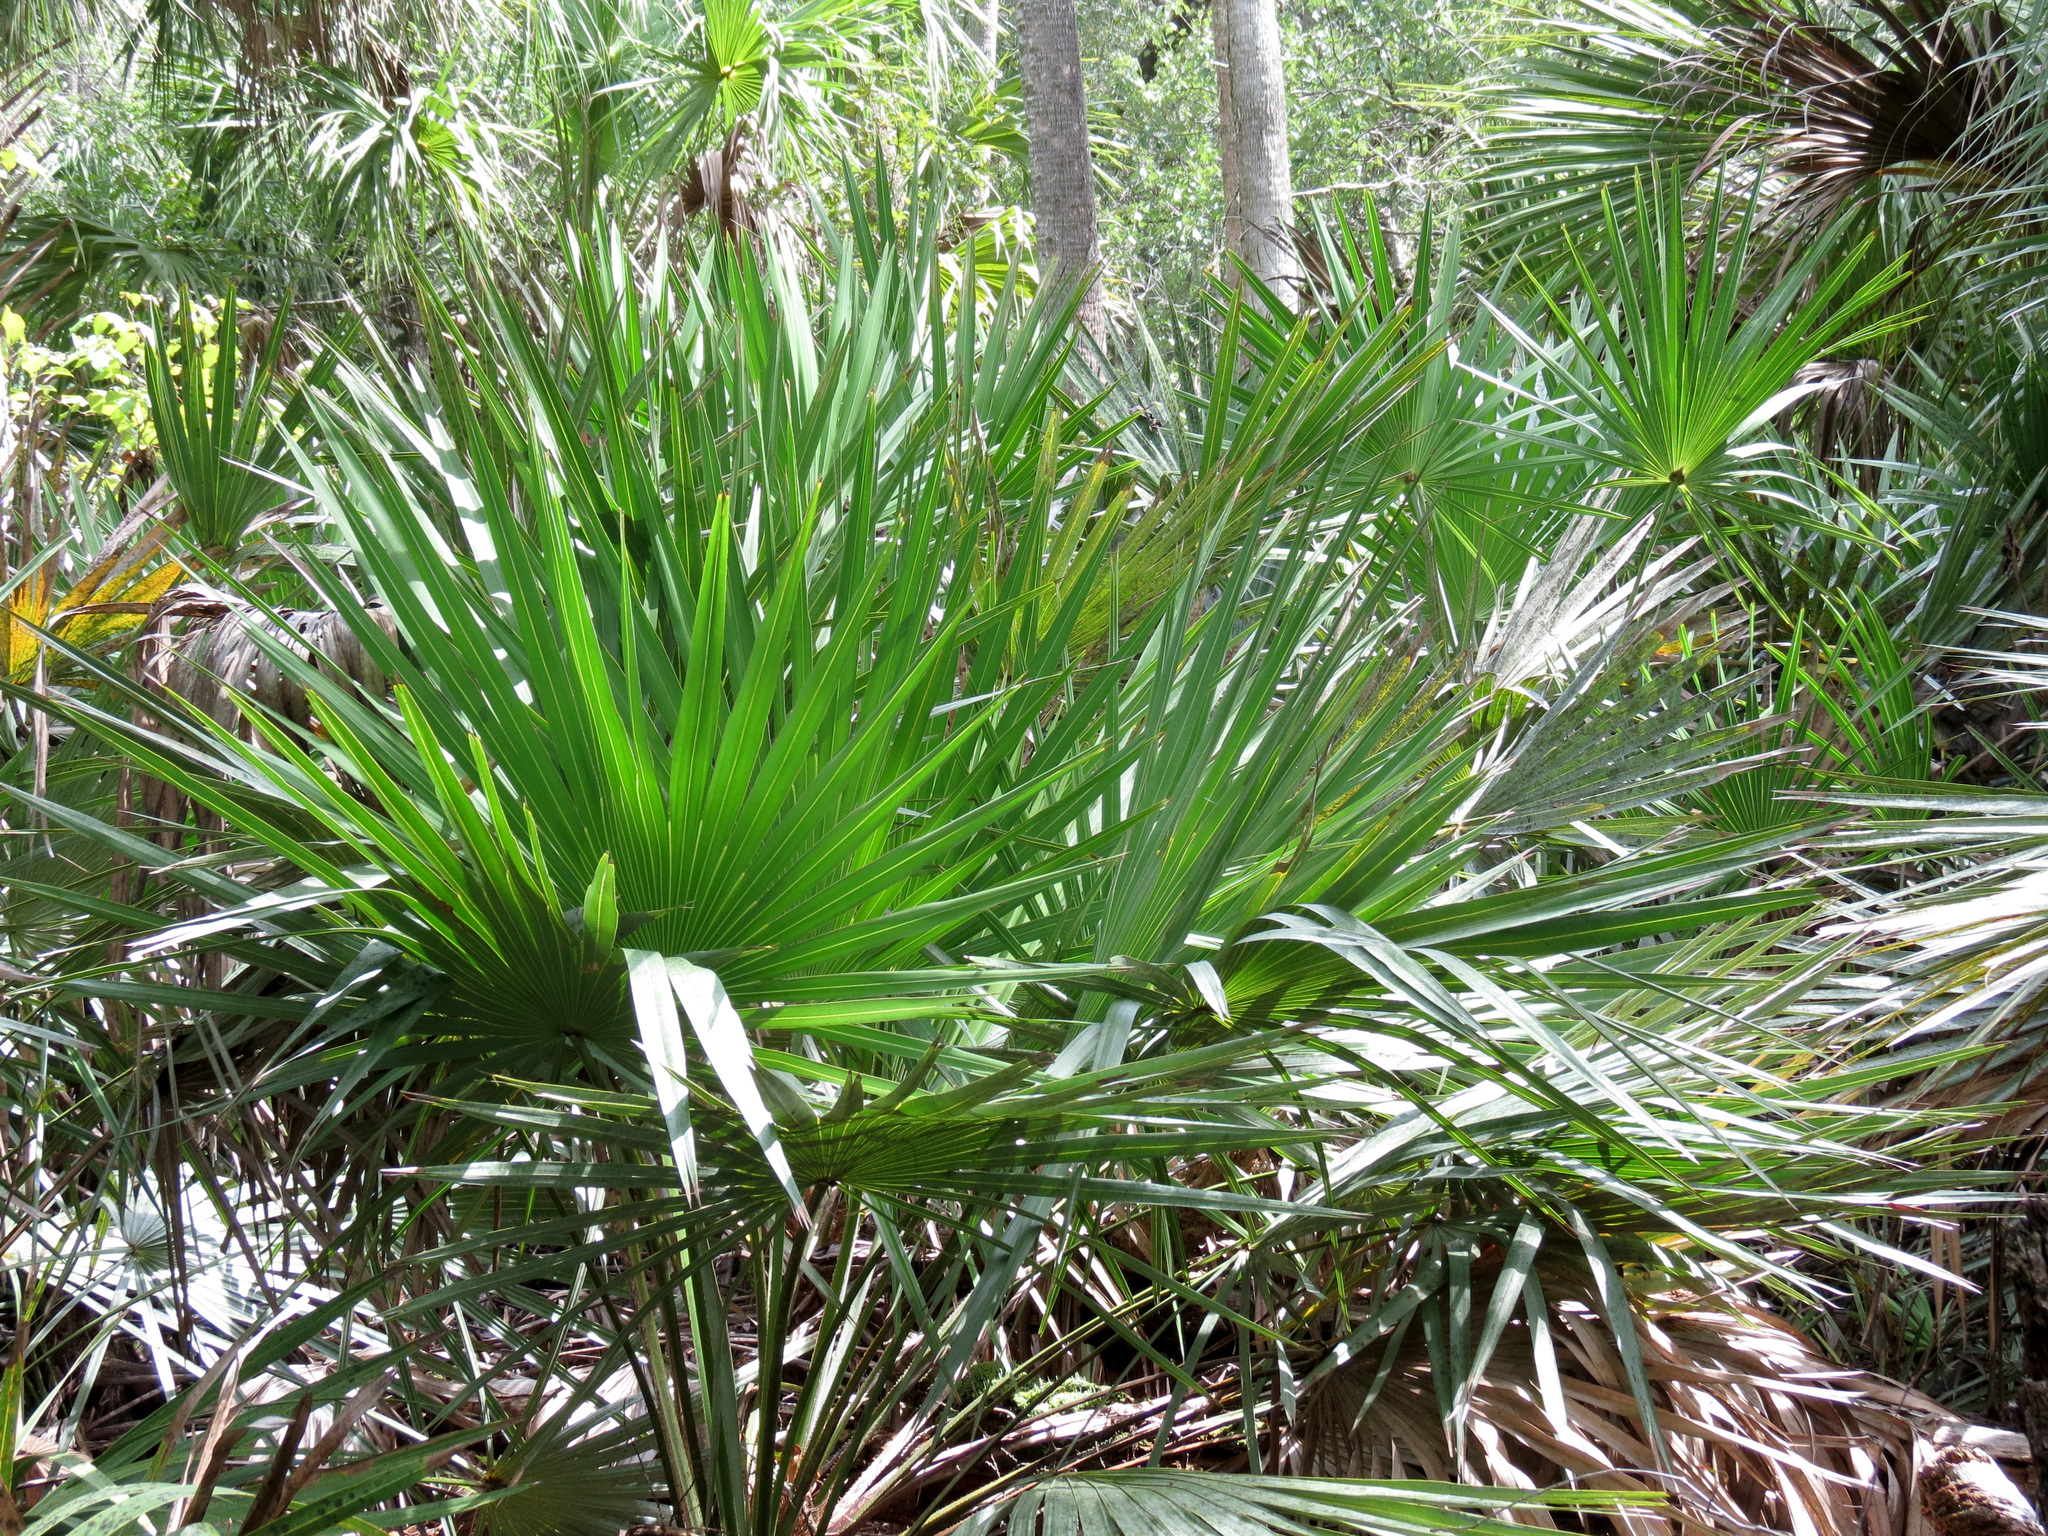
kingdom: Plantae
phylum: Tracheophyta
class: Liliopsida
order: Arecales
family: Arecaceae
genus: Serenoa
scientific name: Serenoa repens
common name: Saw-palmetto
